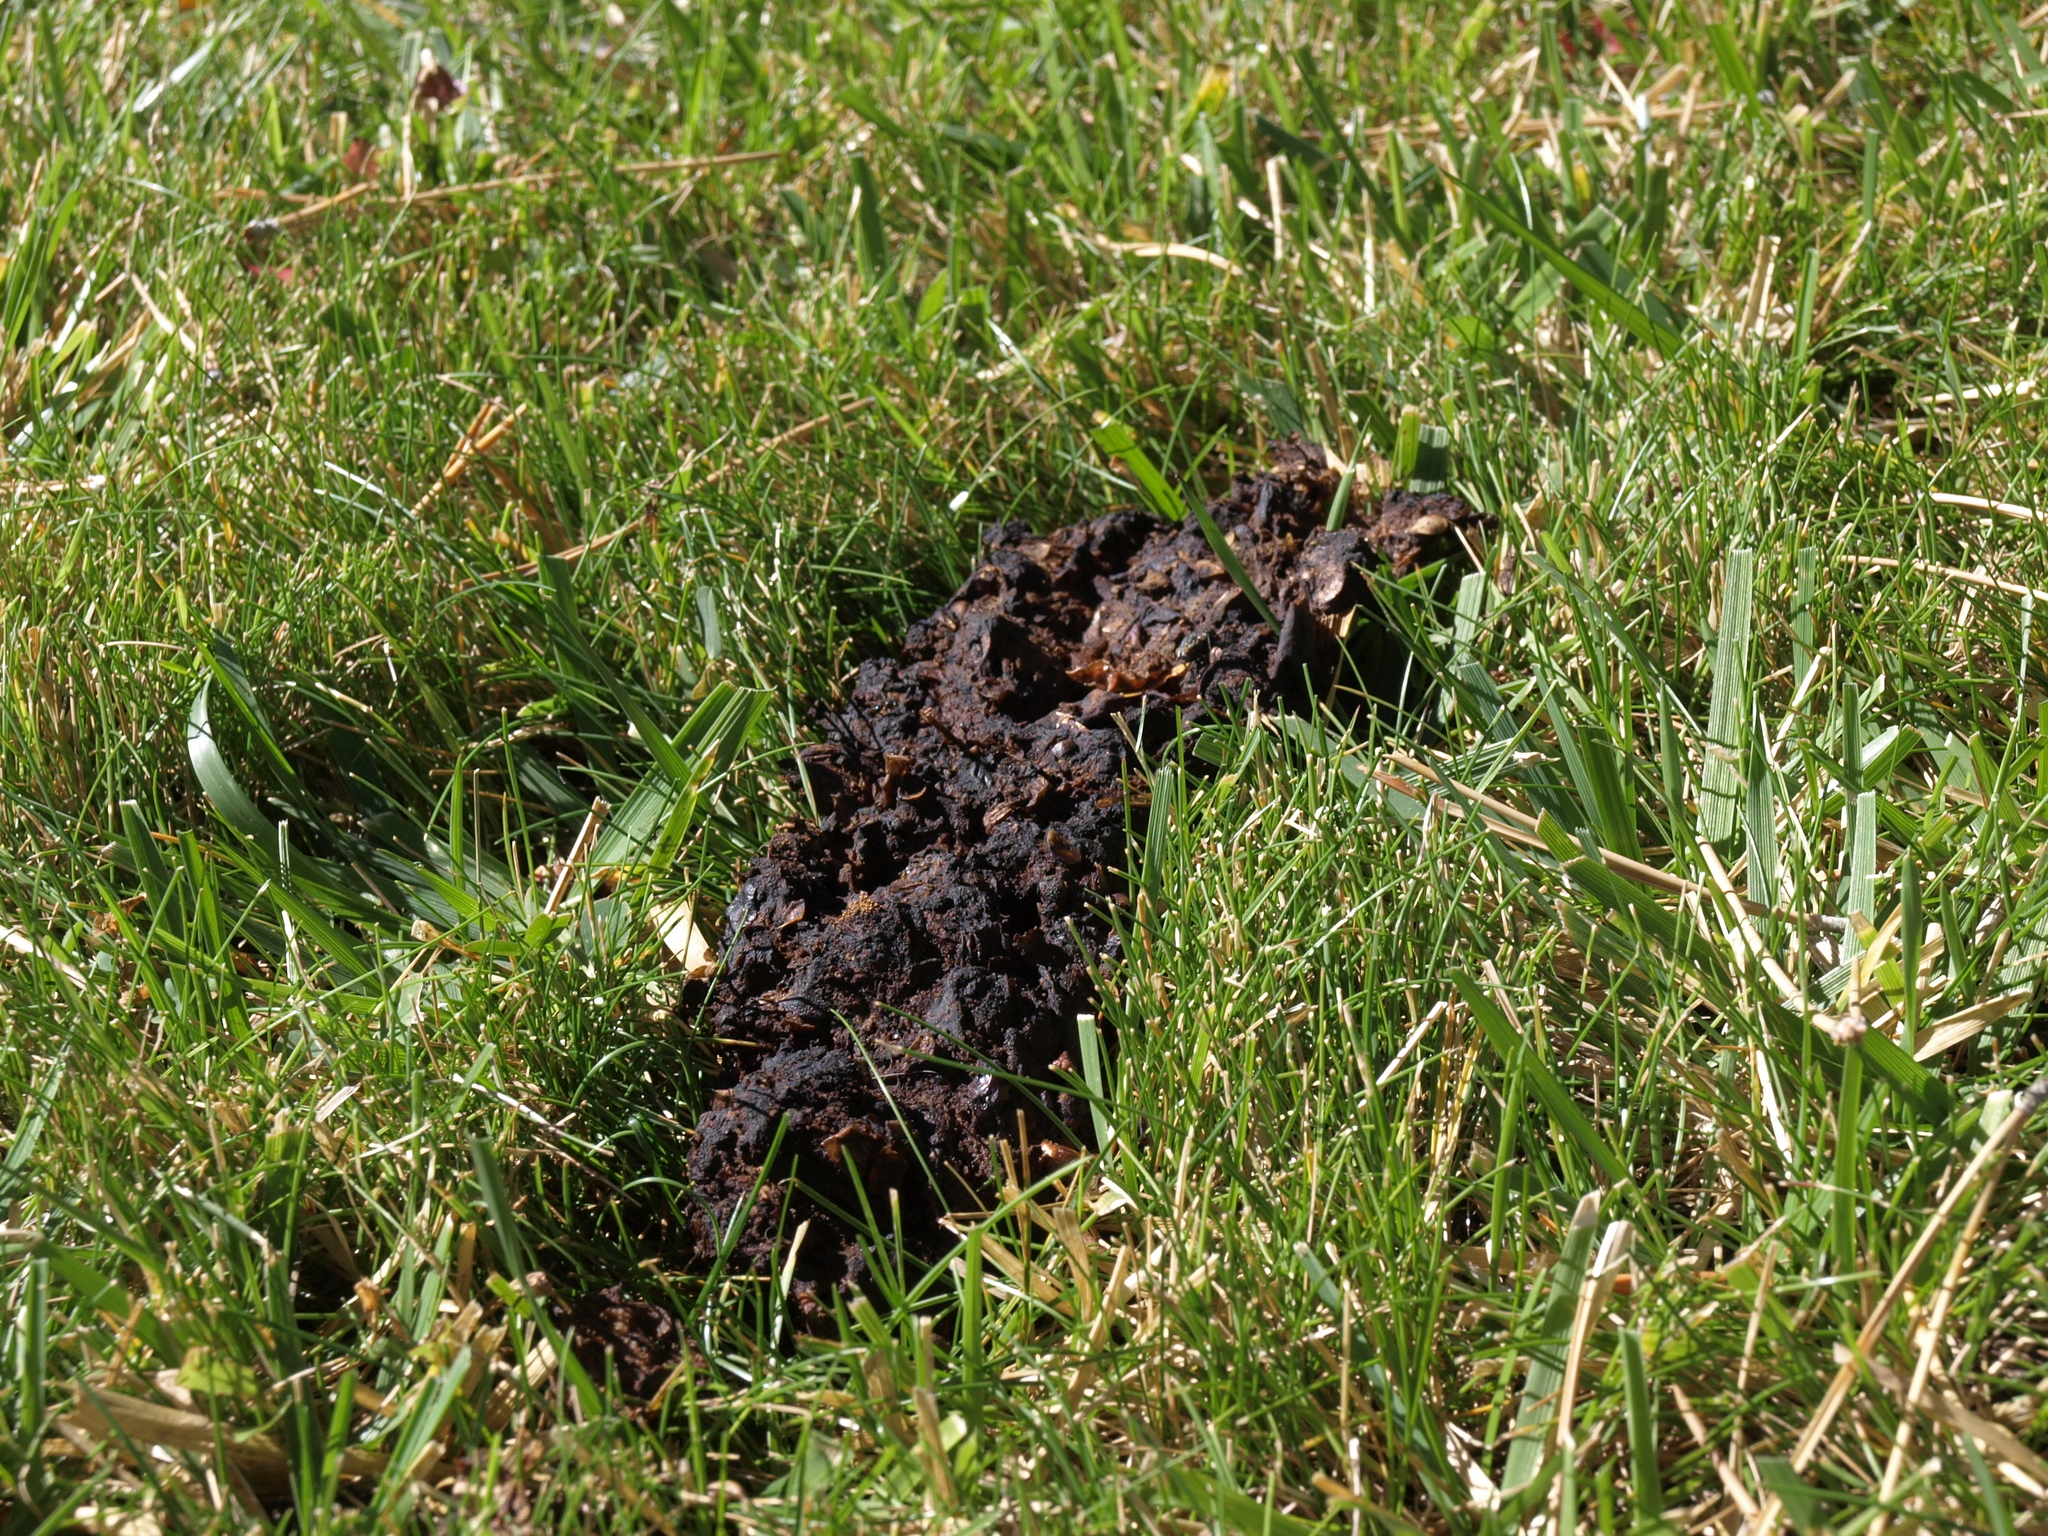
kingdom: Animalia
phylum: Chordata
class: Mammalia
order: Carnivora
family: Ursidae
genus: Ursus
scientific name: Ursus americanus
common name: American black bear
